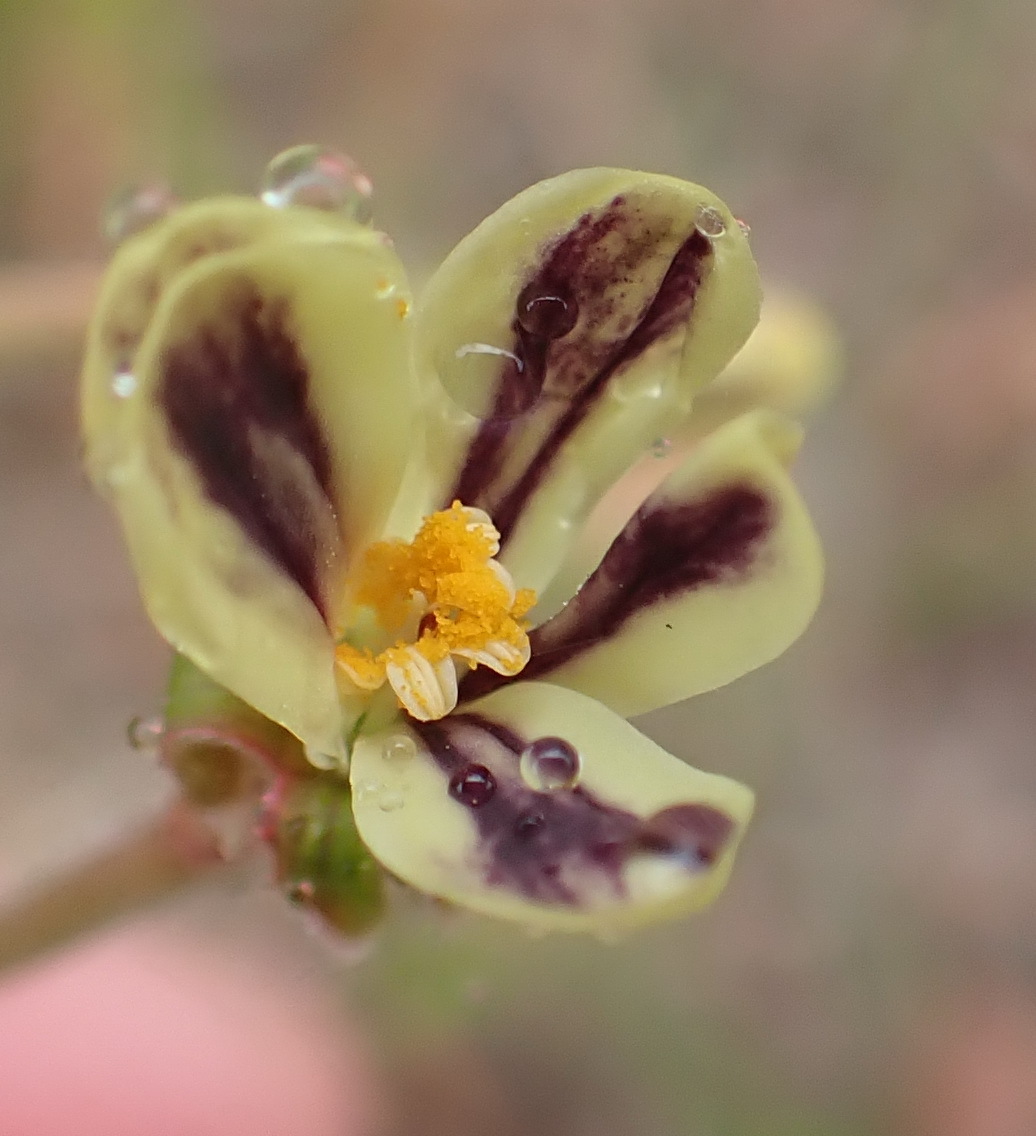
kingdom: Plantae
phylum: Tracheophyta
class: Magnoliopsida
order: Geraniales
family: Geraniaceae
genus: Pelargonium
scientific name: Pelargonium lobatum
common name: Vine-leaf pelargonium
